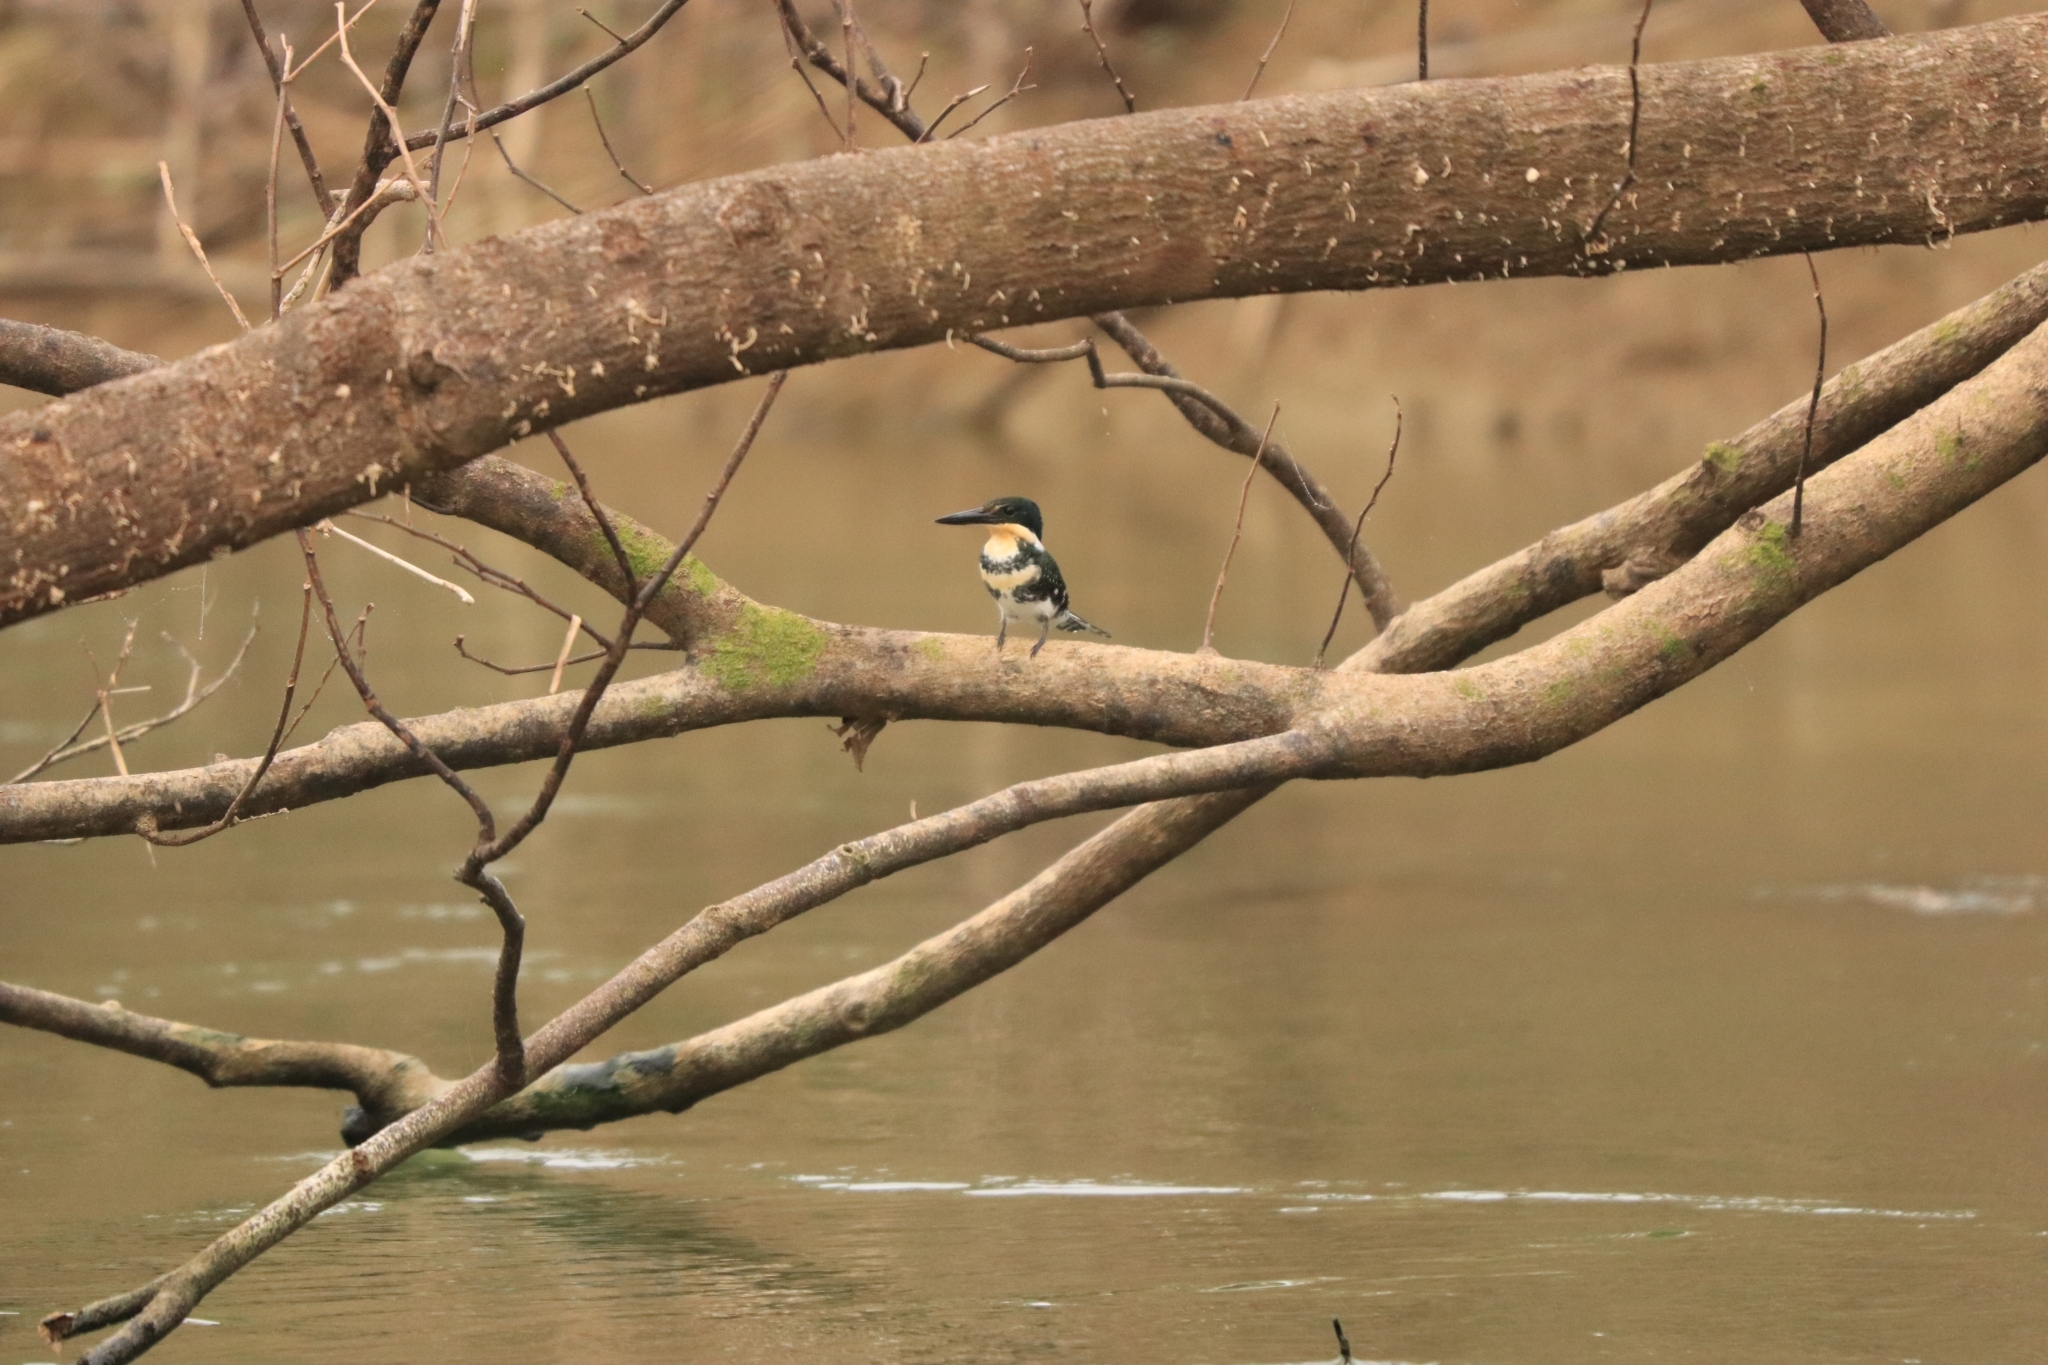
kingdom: Animalia
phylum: Chordata
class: Aves
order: Coraciiformes
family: Alcedinidae
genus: Chloroceryle
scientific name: Chloroceryle americana
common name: Green kingfisher
